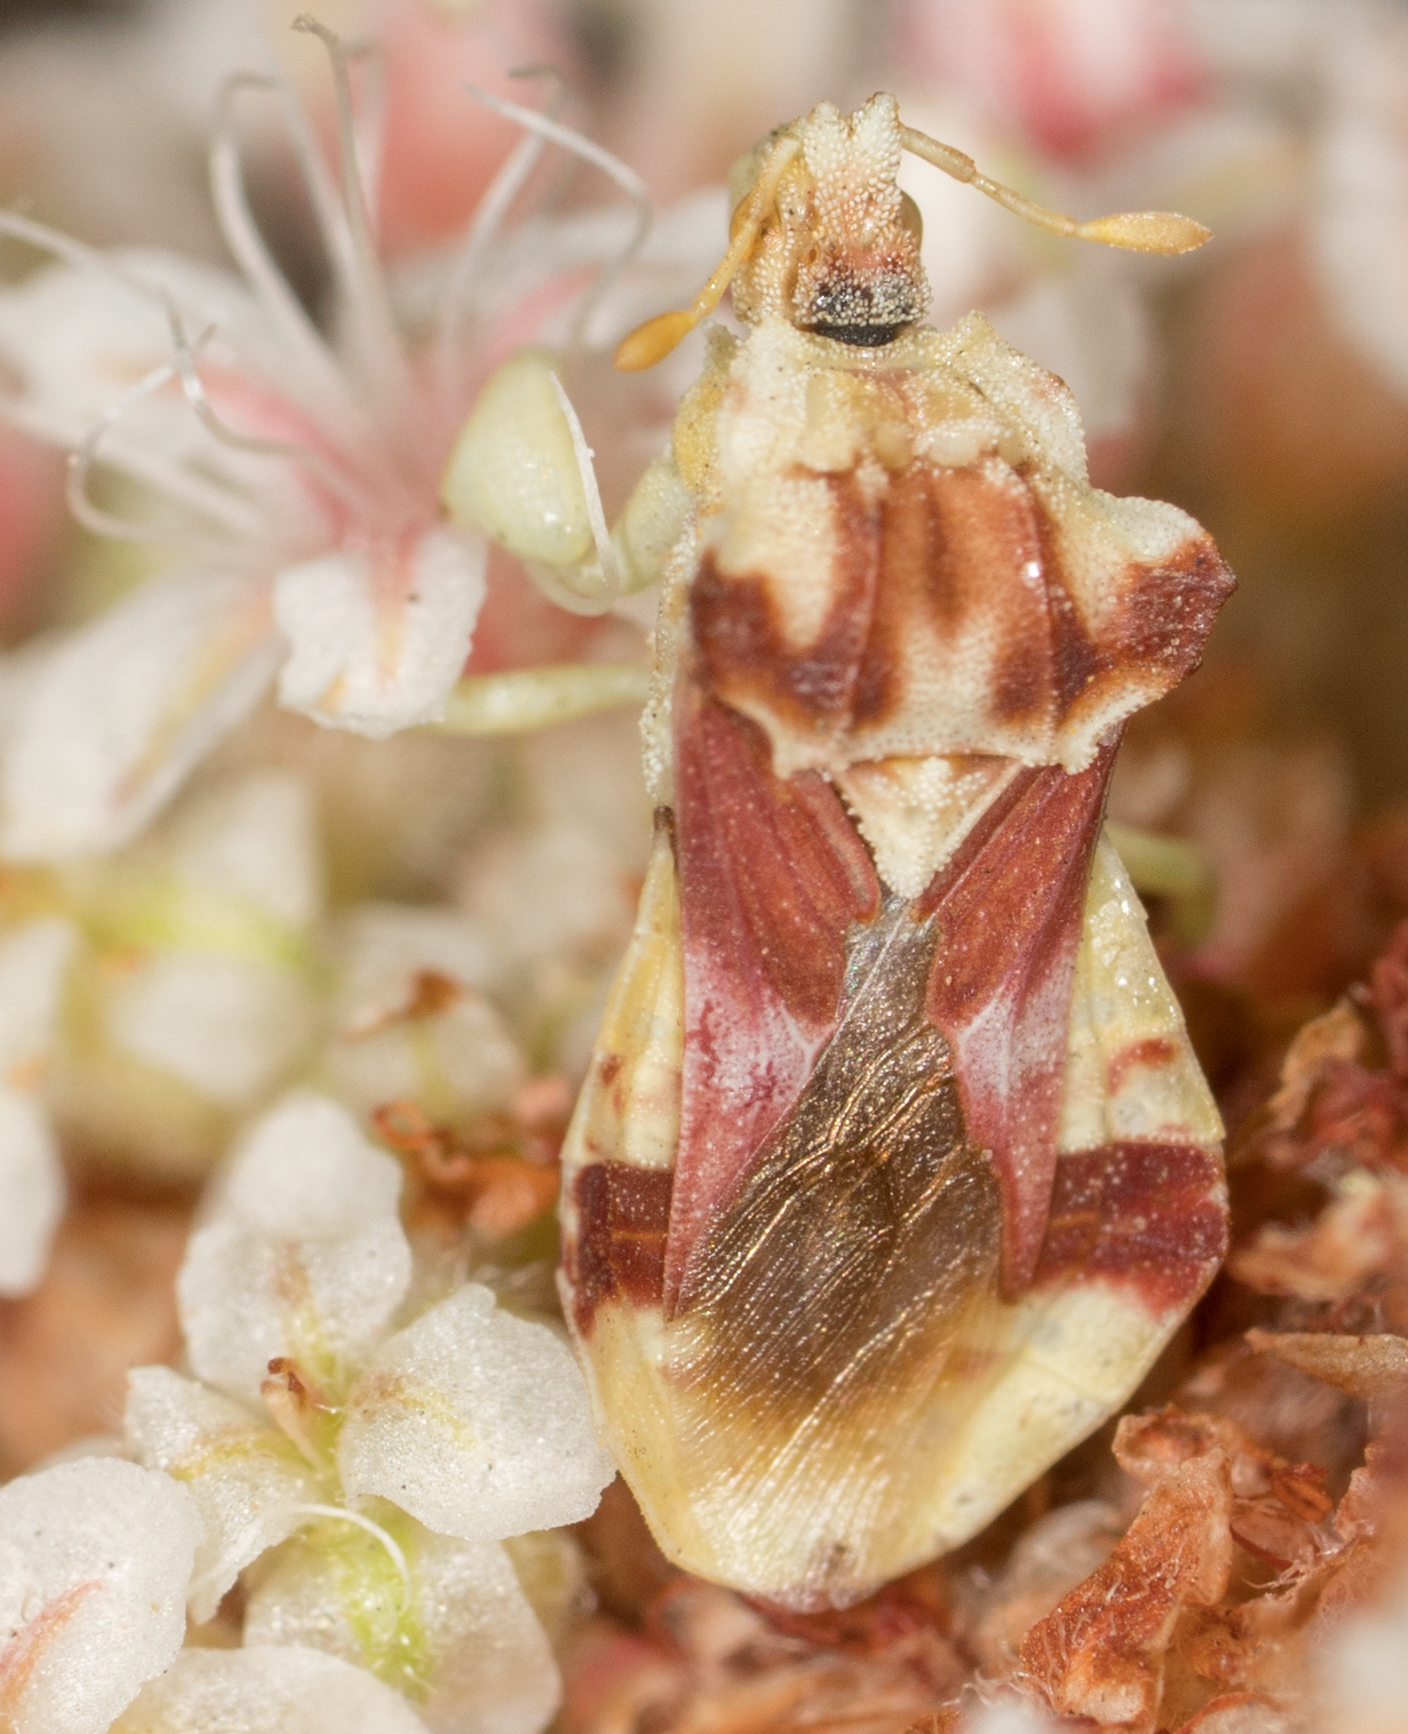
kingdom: Animalia
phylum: Arthropoda
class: Insecta
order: Hemiptera
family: Reduviidae
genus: Phymata
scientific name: Phymata pacifica
